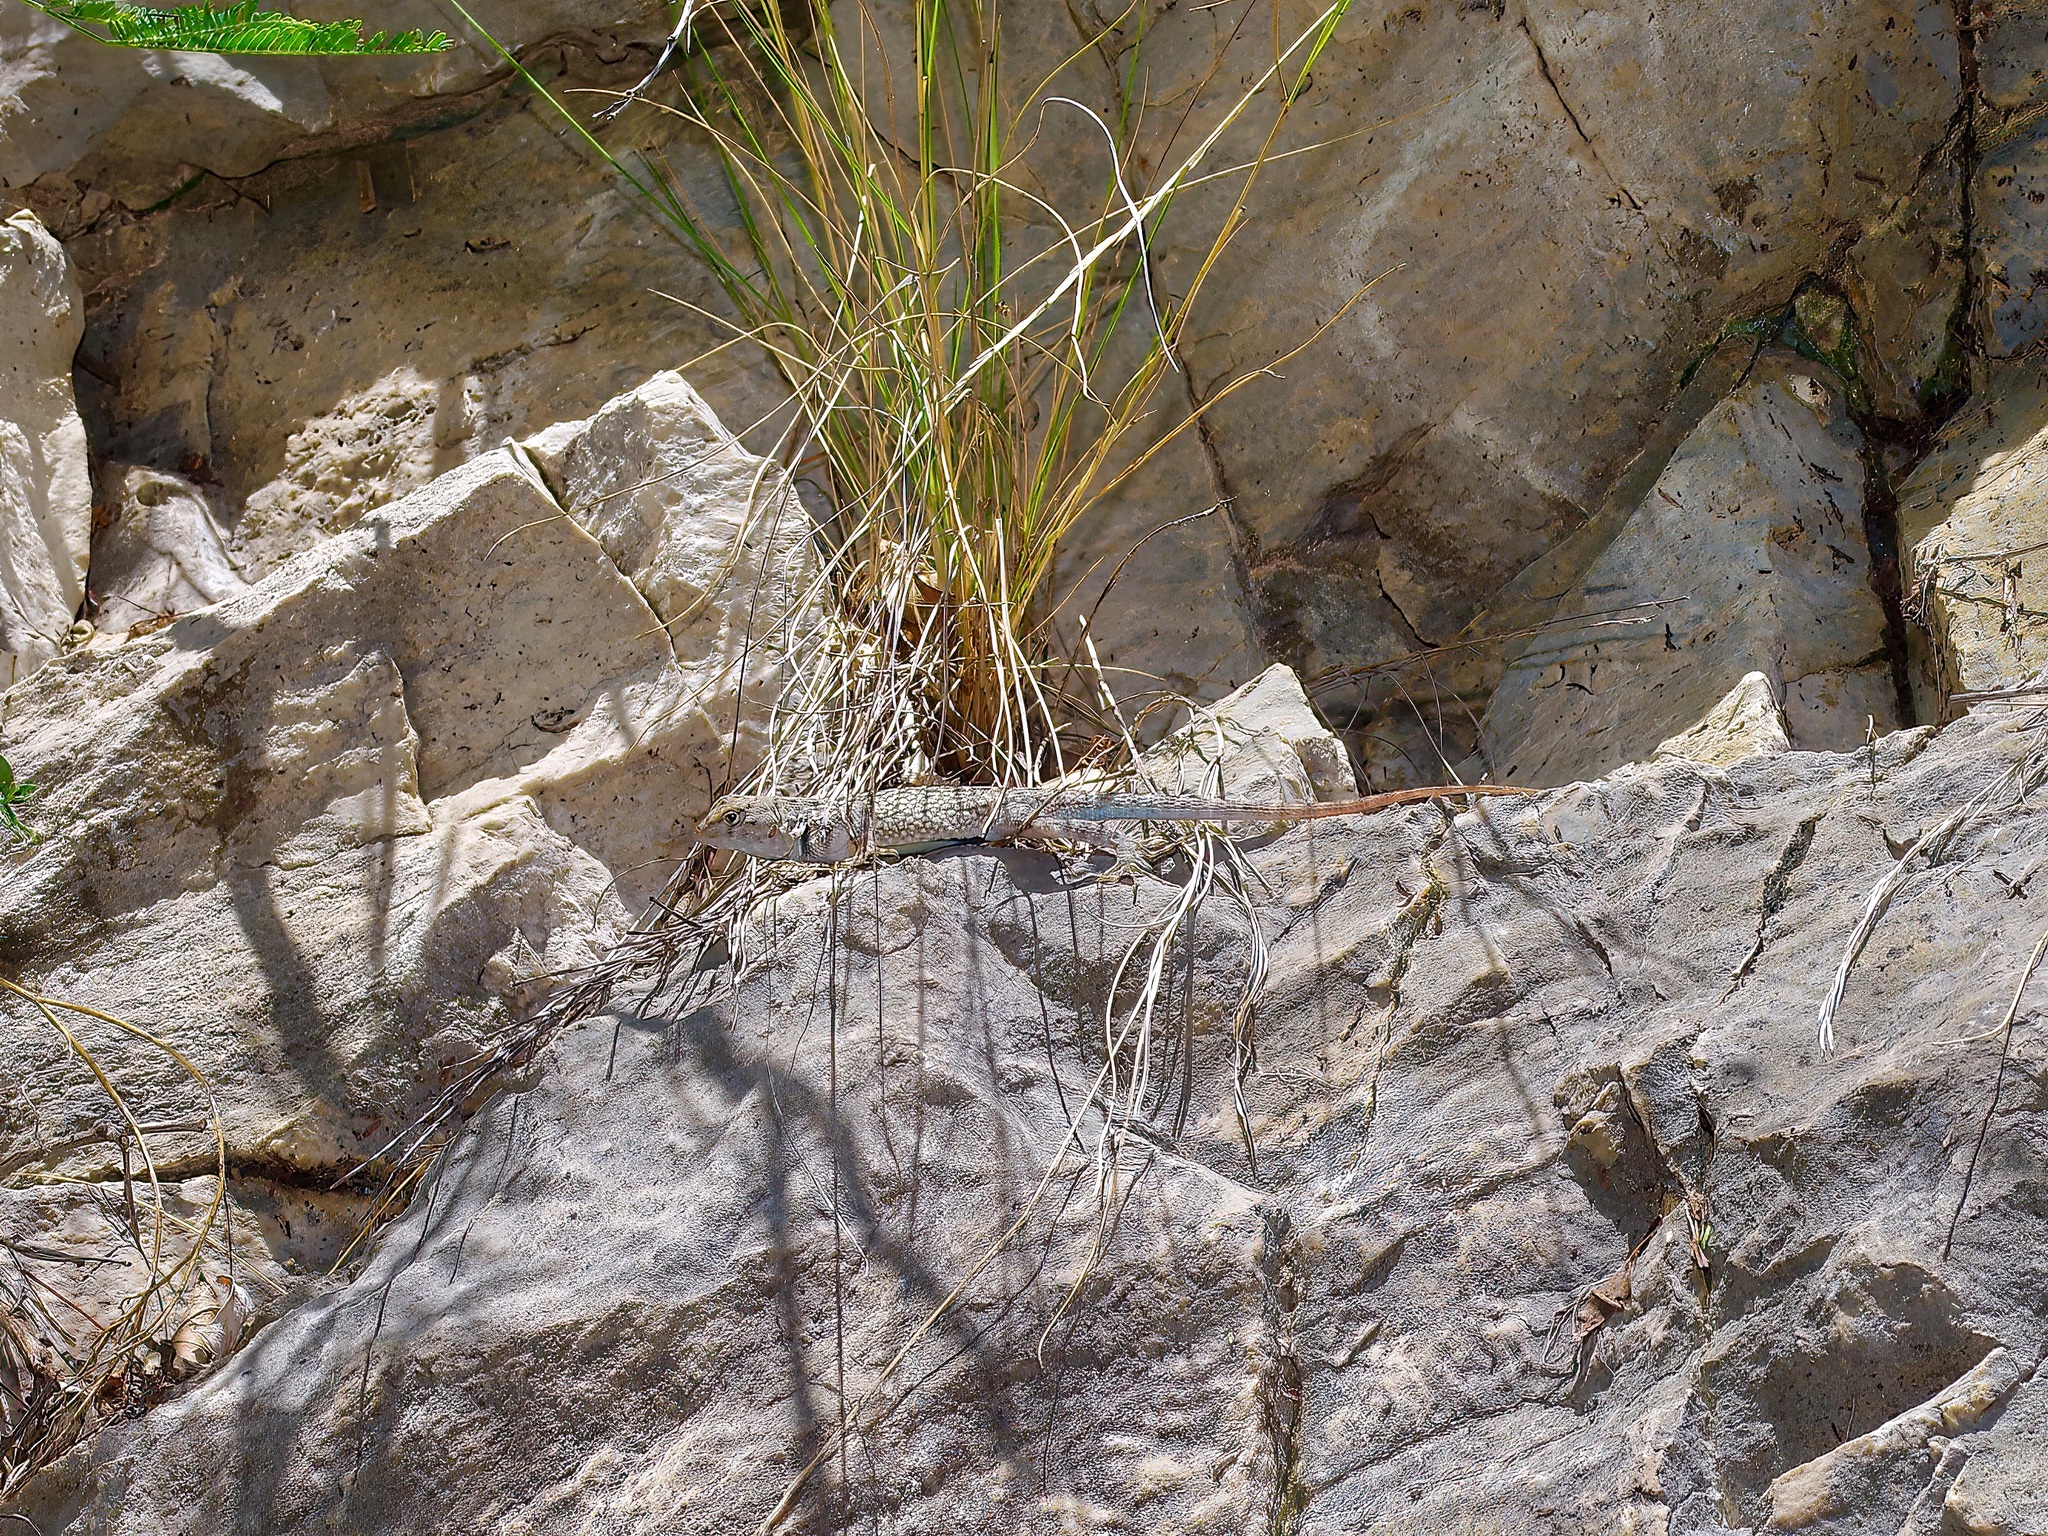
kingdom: Animalia
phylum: Chordata
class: Squamata
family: Phrynosomatidae
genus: Sceloporus
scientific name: Sceloporus merriami
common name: Canyon lizard
